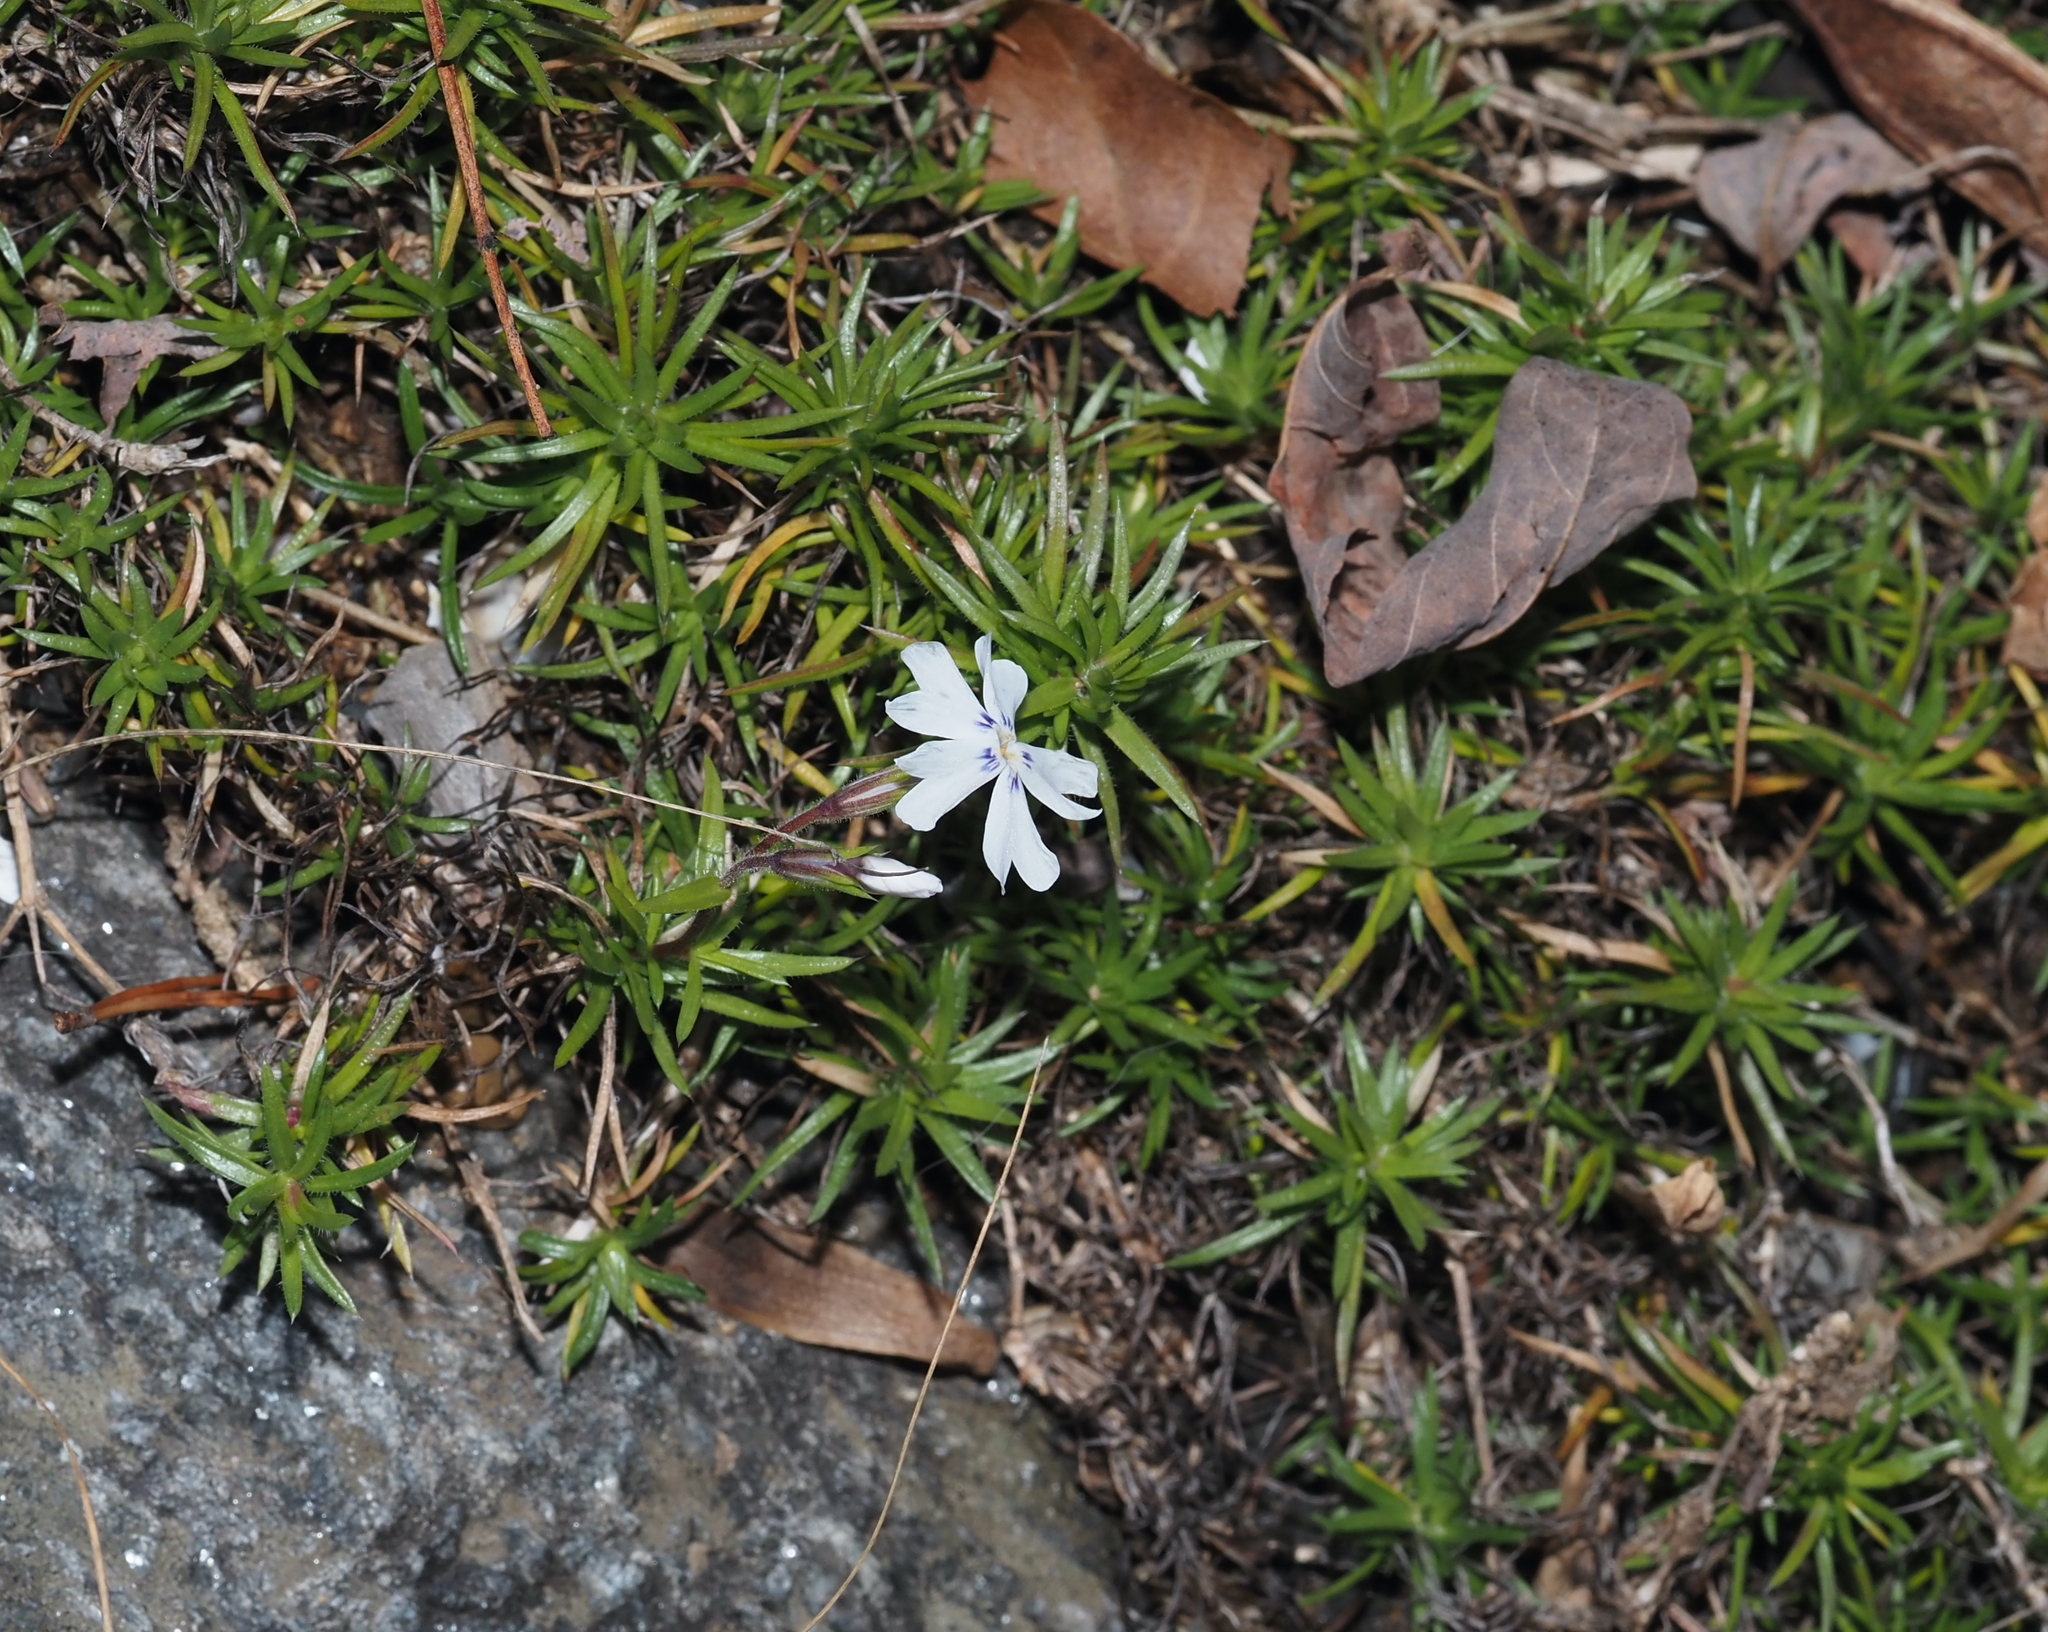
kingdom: Plantae
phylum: Tracheophyta
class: Magnoliopsida
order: Ericales
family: Polemoniaceae
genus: Phlox
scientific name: Phlox subulata
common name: Moss phlox
